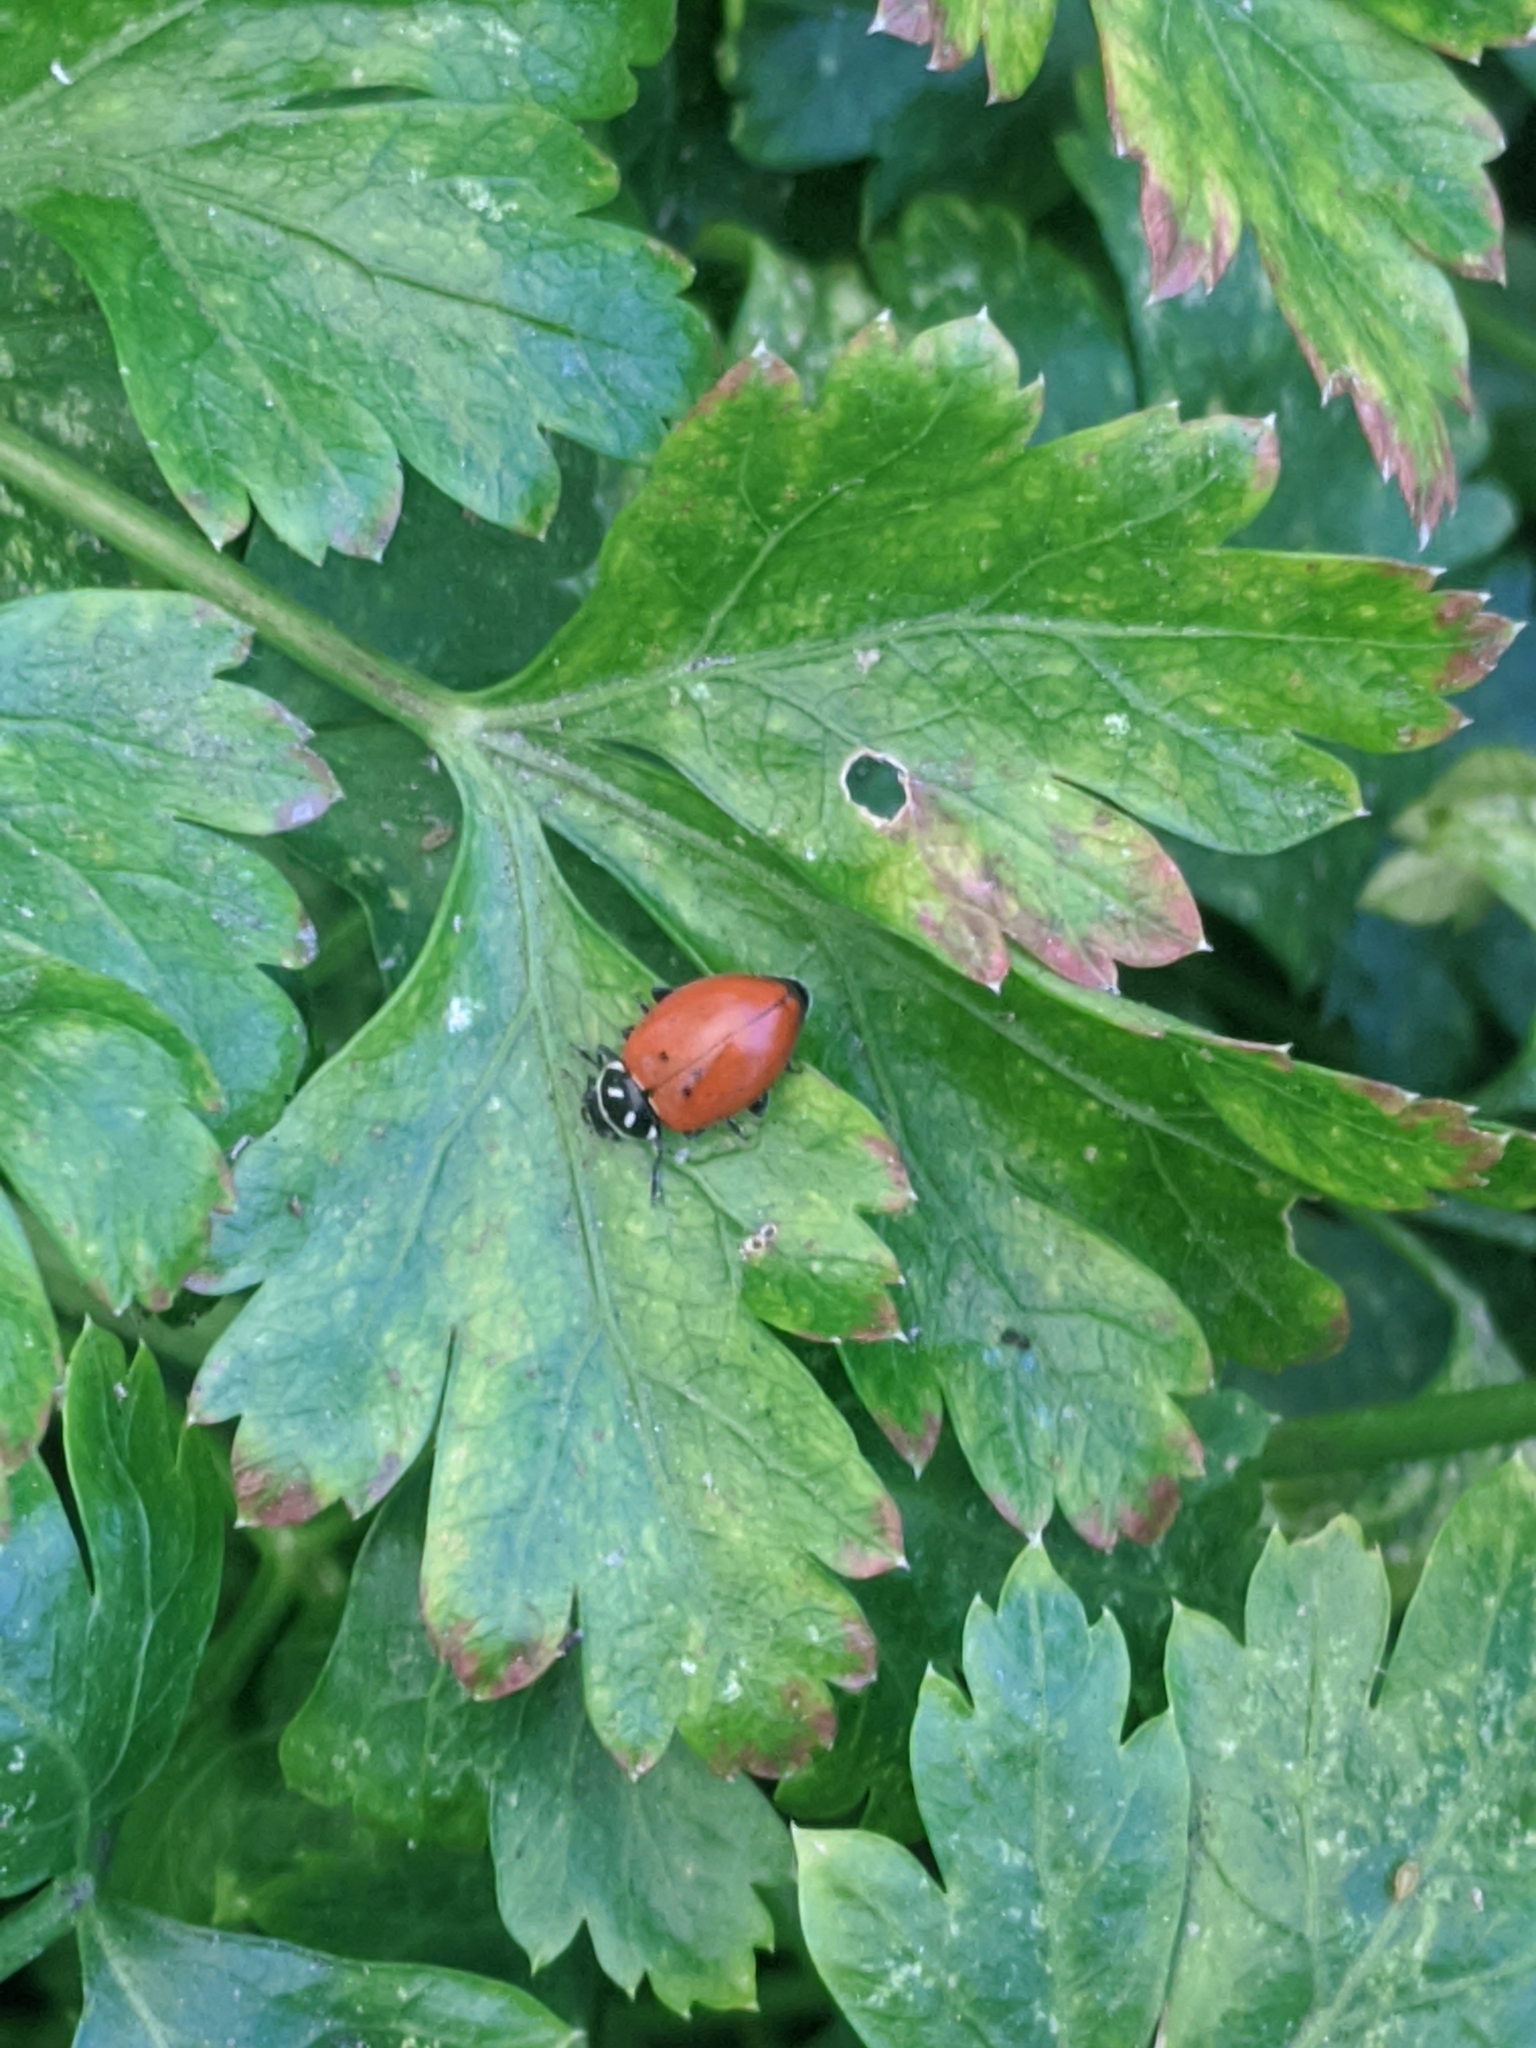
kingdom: Animalia
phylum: Arthropoda
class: Insecta
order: Coleoptera
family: Coccinellidae
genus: Hippodamia
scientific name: Hippodamia convergens
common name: Convergent lady beetle
